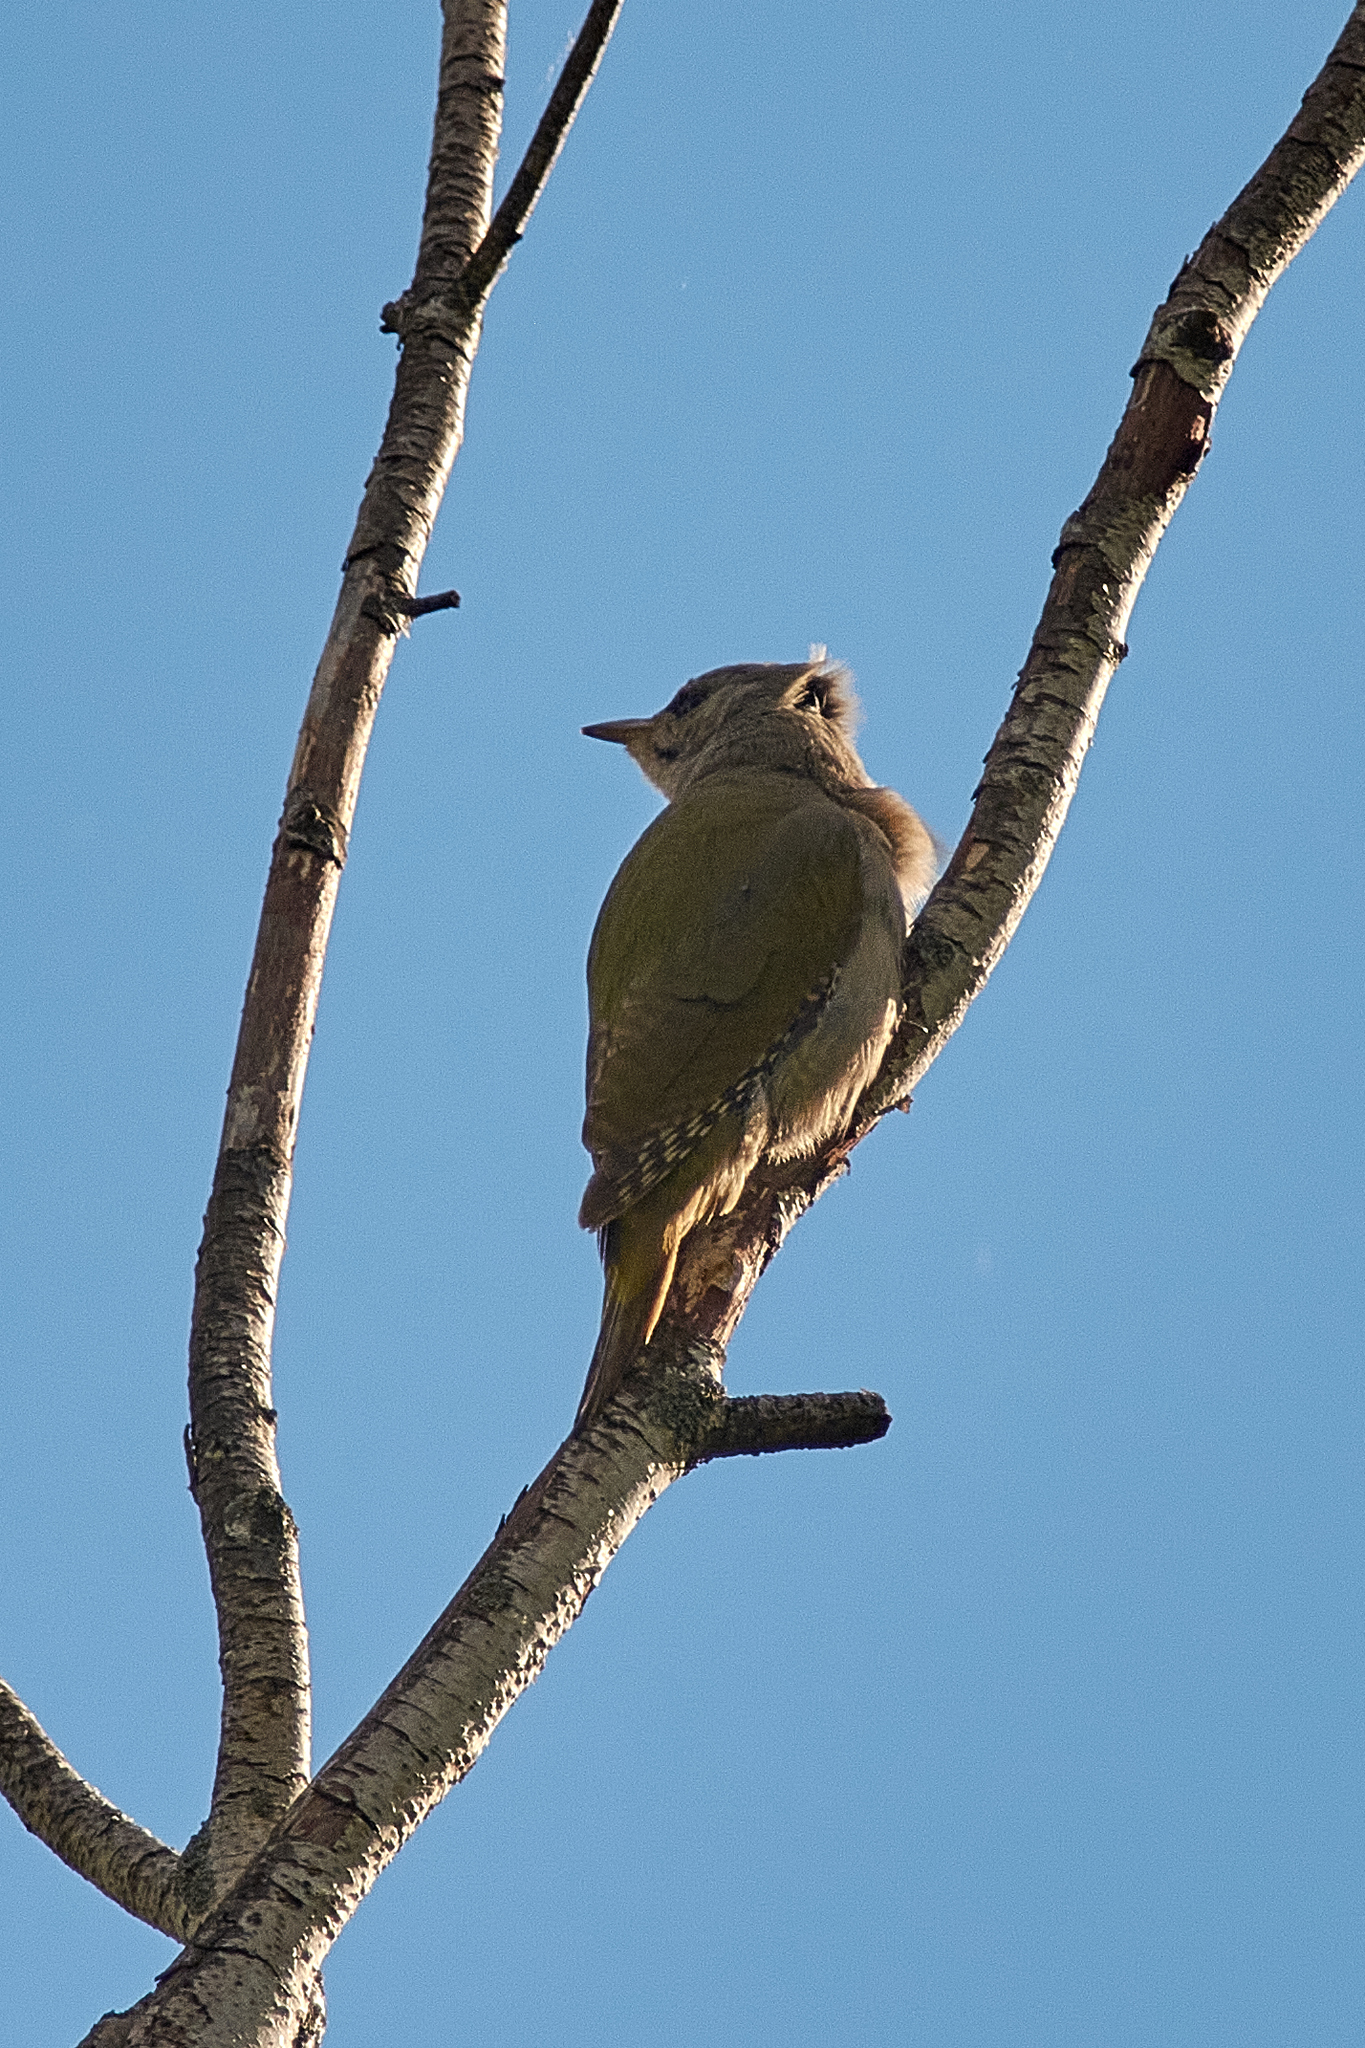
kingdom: Animalia
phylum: Chordata
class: Aves
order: Piciformes
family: Picidae
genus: Picus
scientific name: Picus canus
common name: Grey-headed woodpecker
